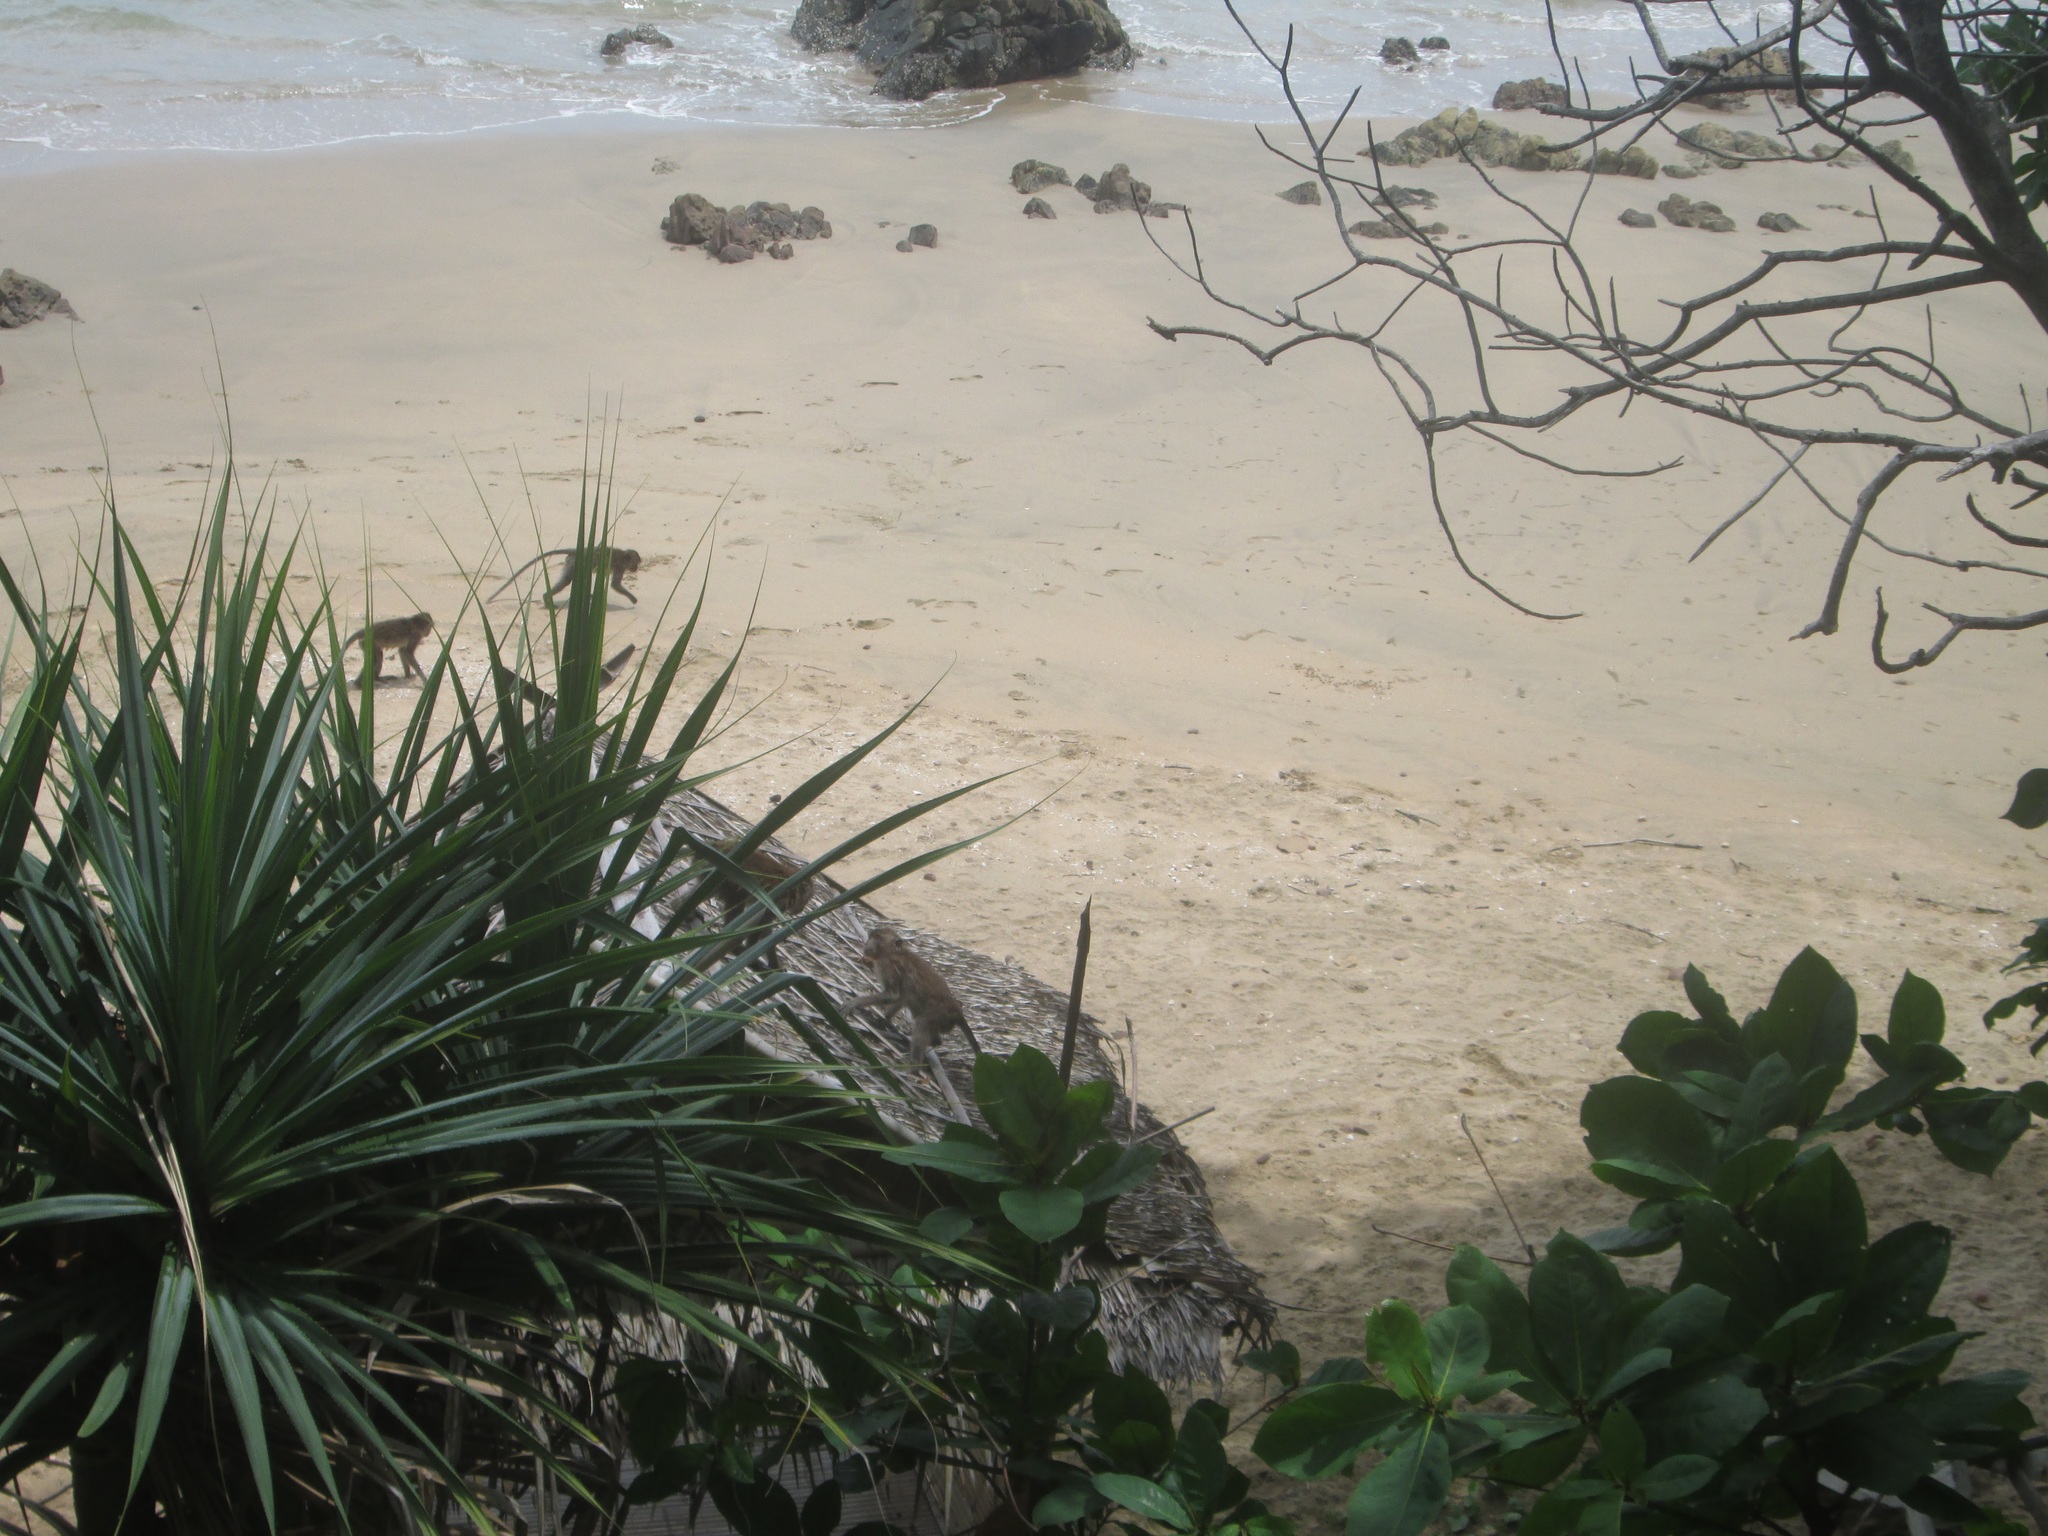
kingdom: Animalia
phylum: Chordata
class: Mammalia
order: Primates
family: Cercopithecidae
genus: Macaca
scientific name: Macaca fascicularis
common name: Crab-eating macaque
